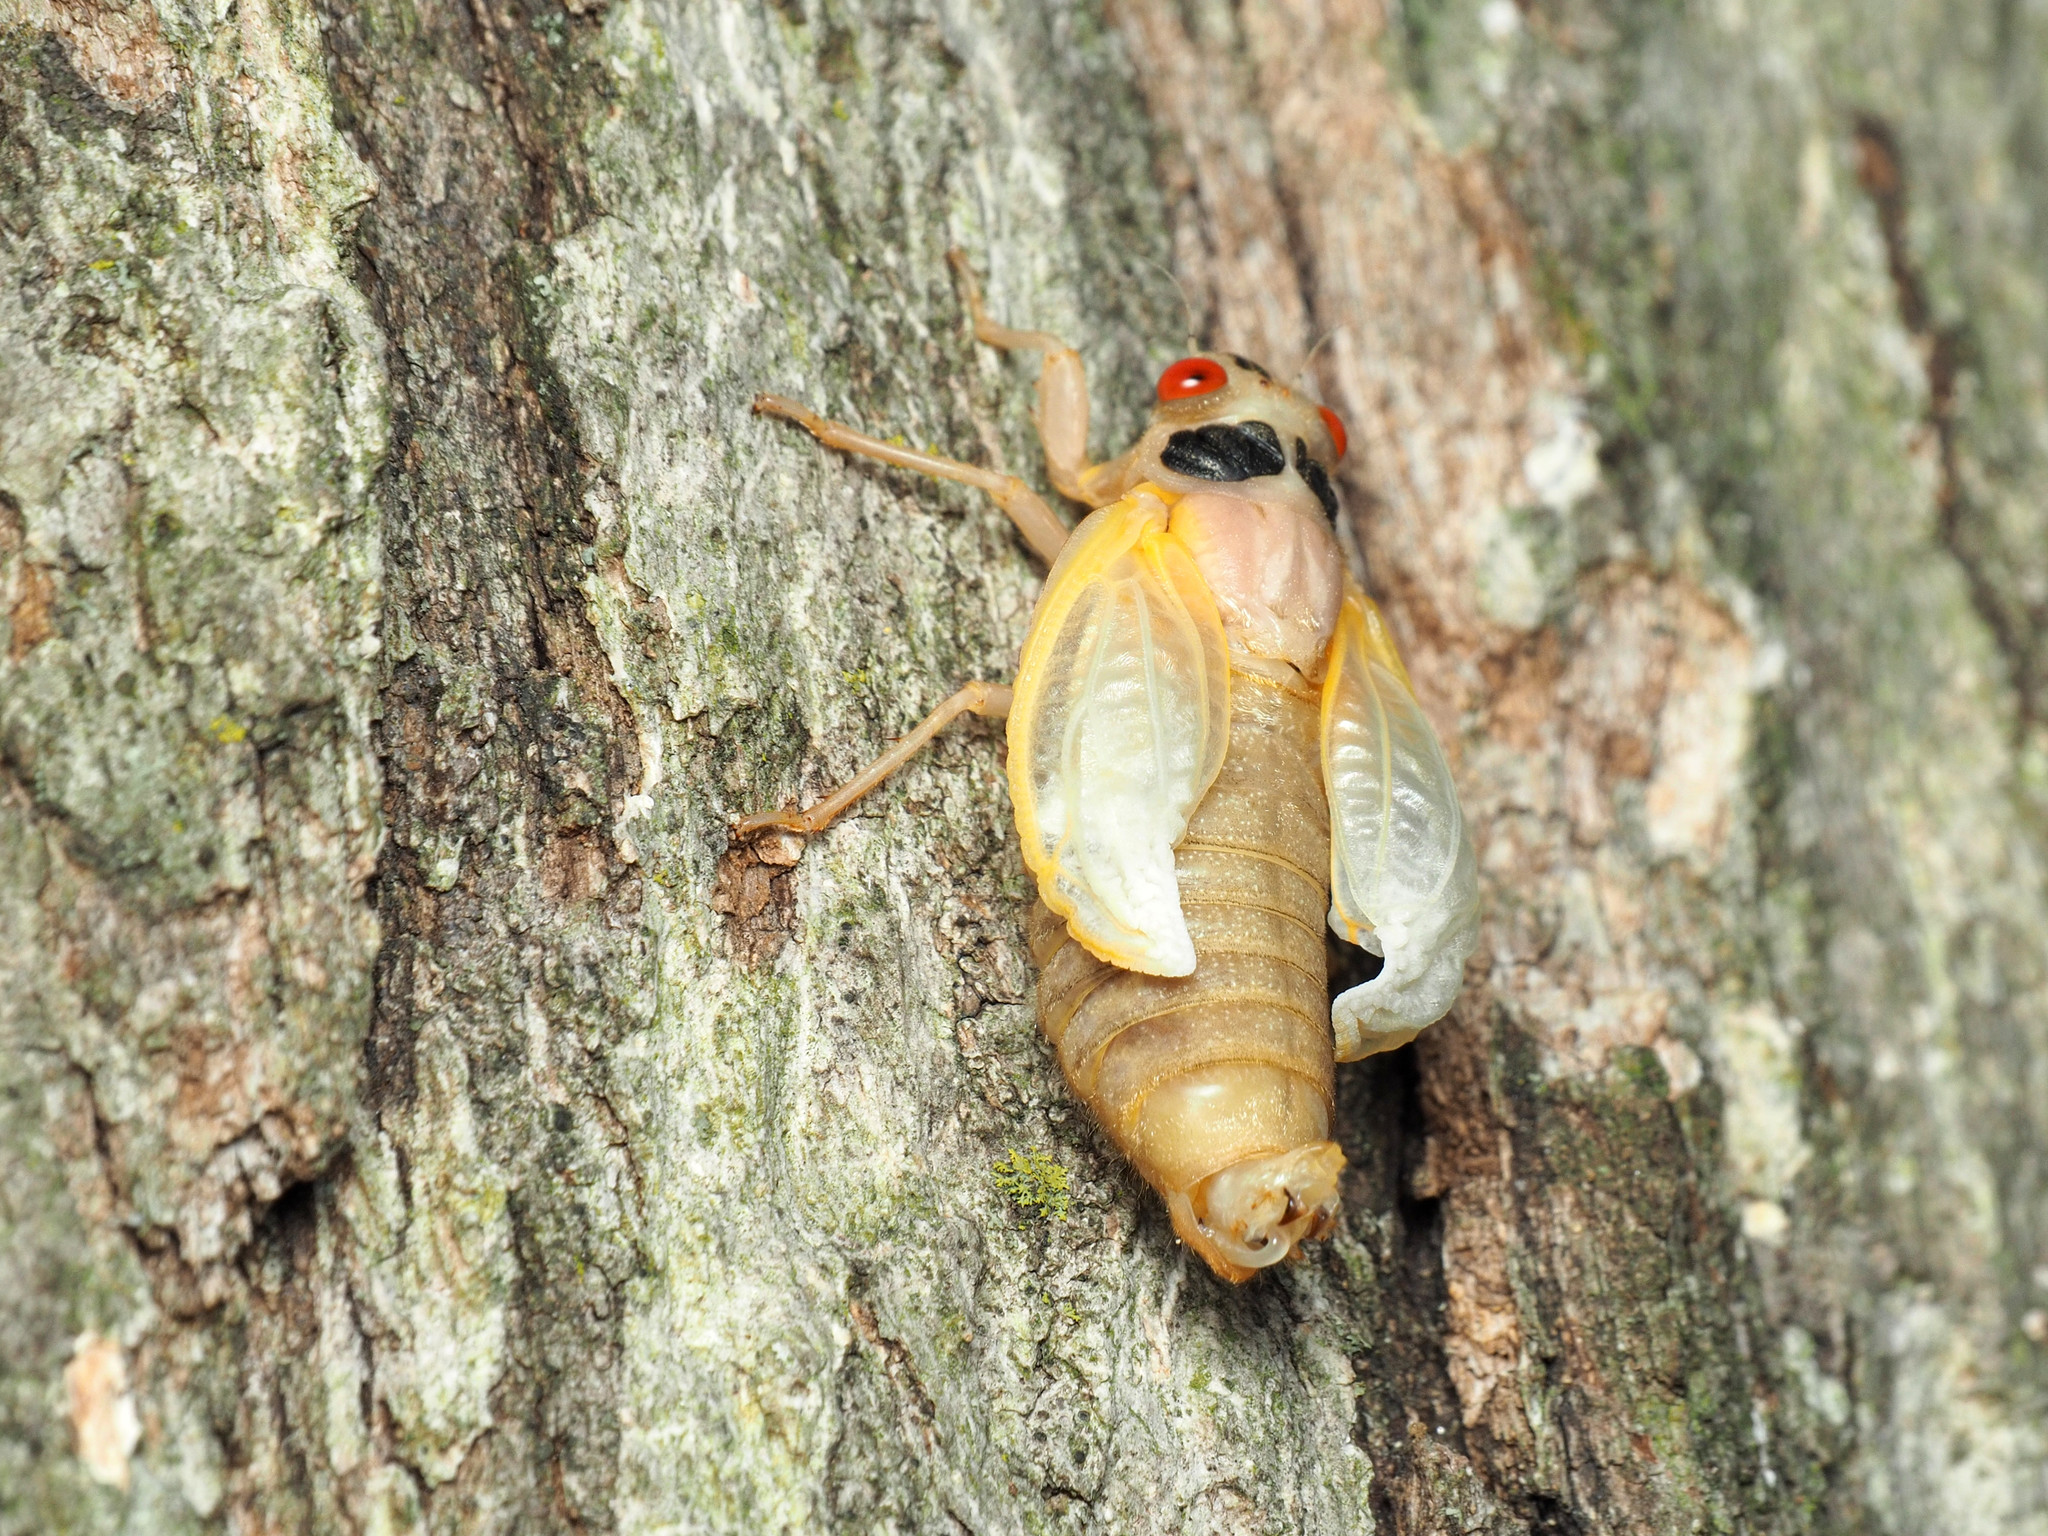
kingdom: Animalia
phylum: Arthropoda
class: Insecta
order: Hemiptera
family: Cicadidae
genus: Magicicada
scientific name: Magicicada
